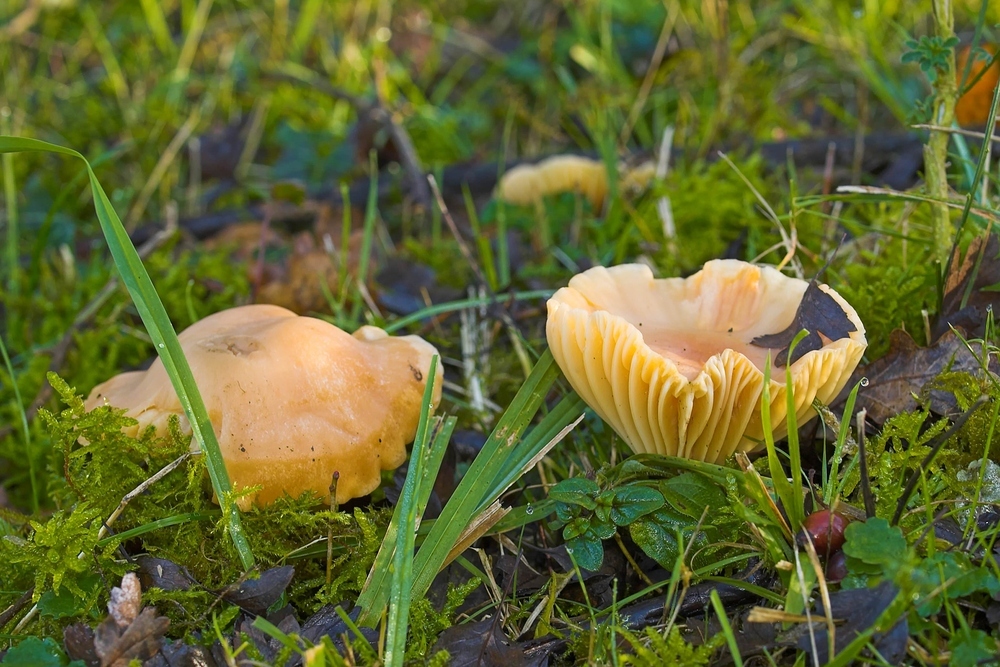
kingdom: Fungi
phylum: Basidiomycota
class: Agaricomycetes
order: Agaricales
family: Hygrophoraceae
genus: Cuphophyllus
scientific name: Cuphophyllus pratensis
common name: Meadow waxcap
